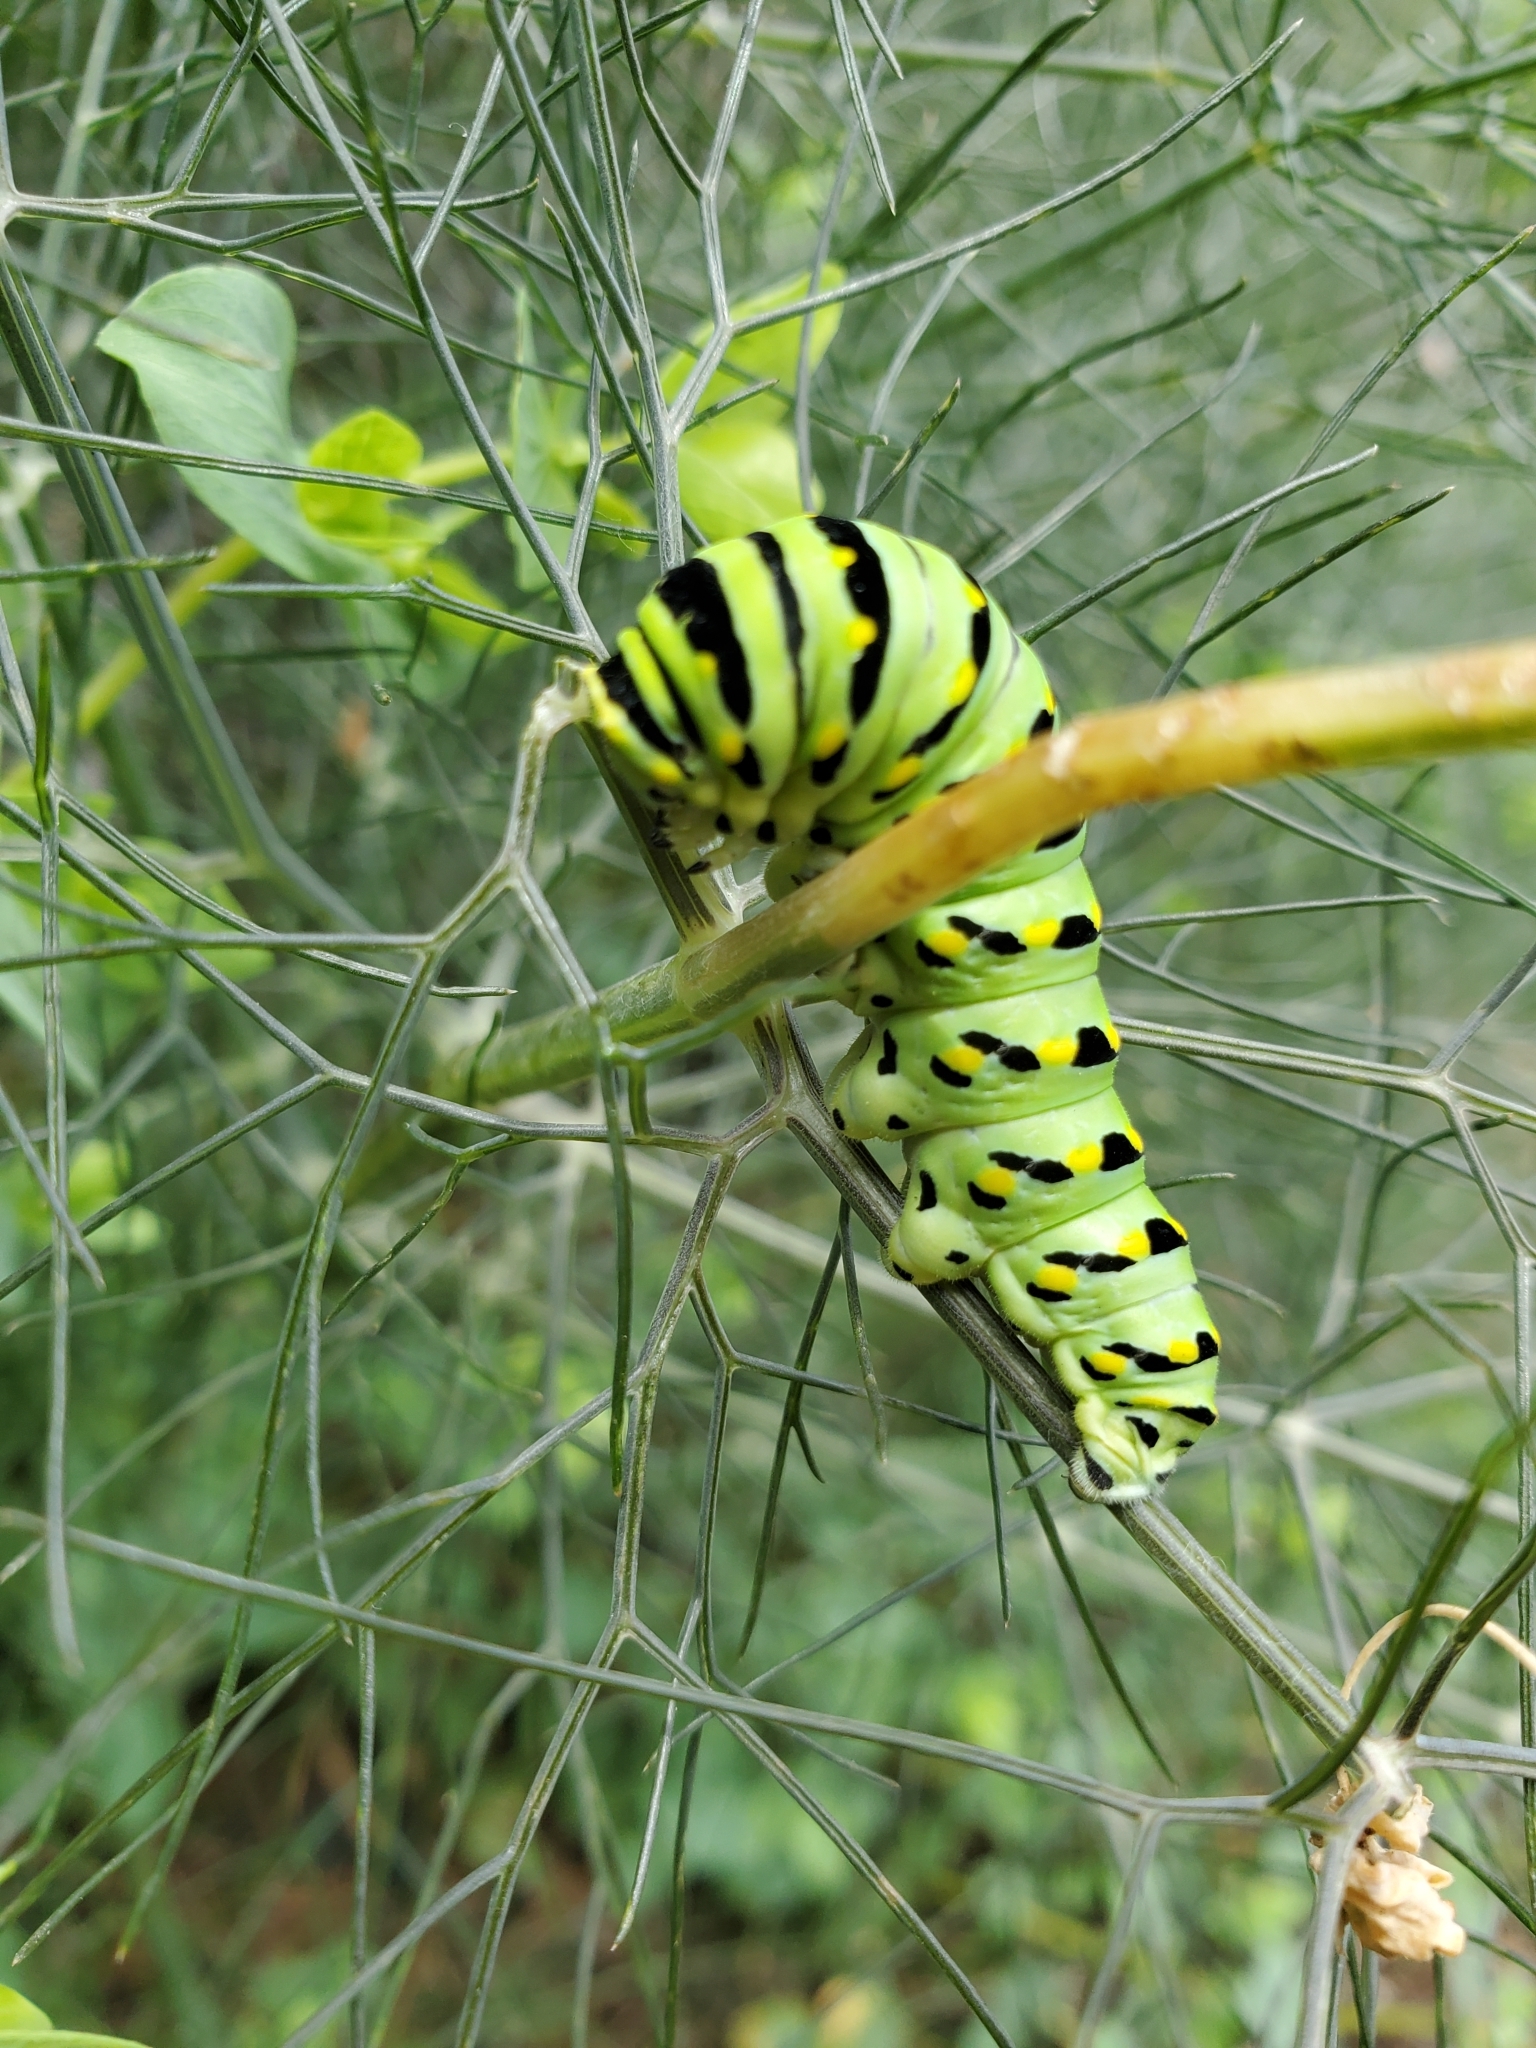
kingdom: Animalia
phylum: Arthropoda
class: Insecta
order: Lepidoptera
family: Papilionidae
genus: Papilio
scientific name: Papilio polyxenes
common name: Black swallowtail
